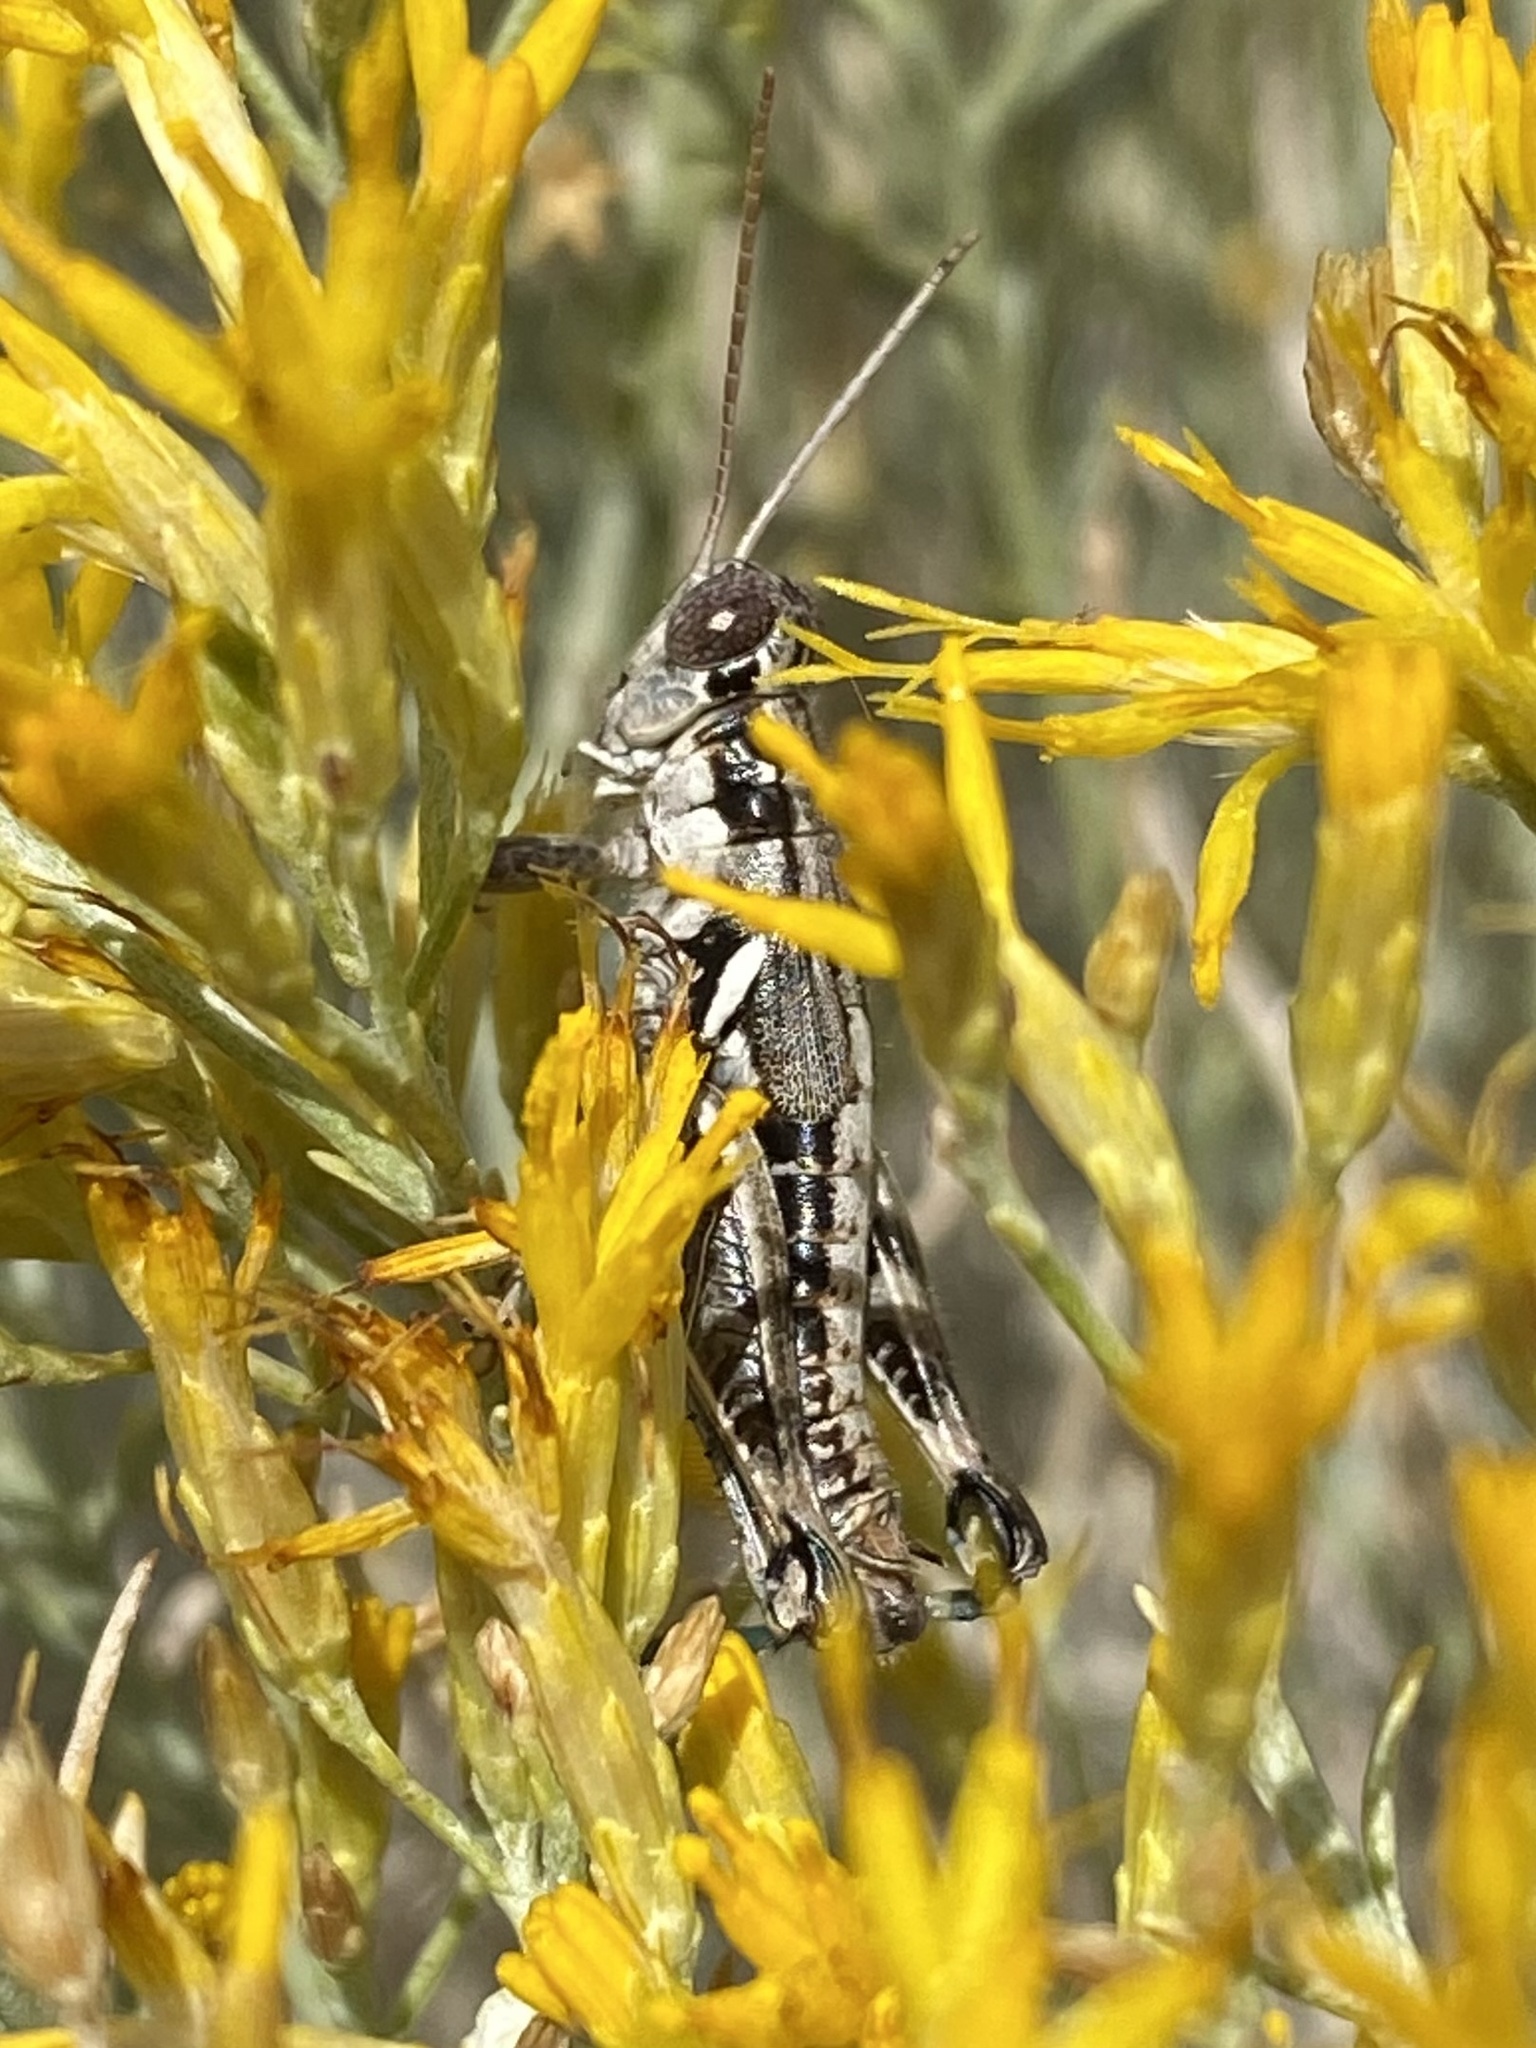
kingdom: Animalia
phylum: Arthropoda
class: Insecta
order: Orthoptera
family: Acrididae
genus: Melanoplus
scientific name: Melanoplus aridus
